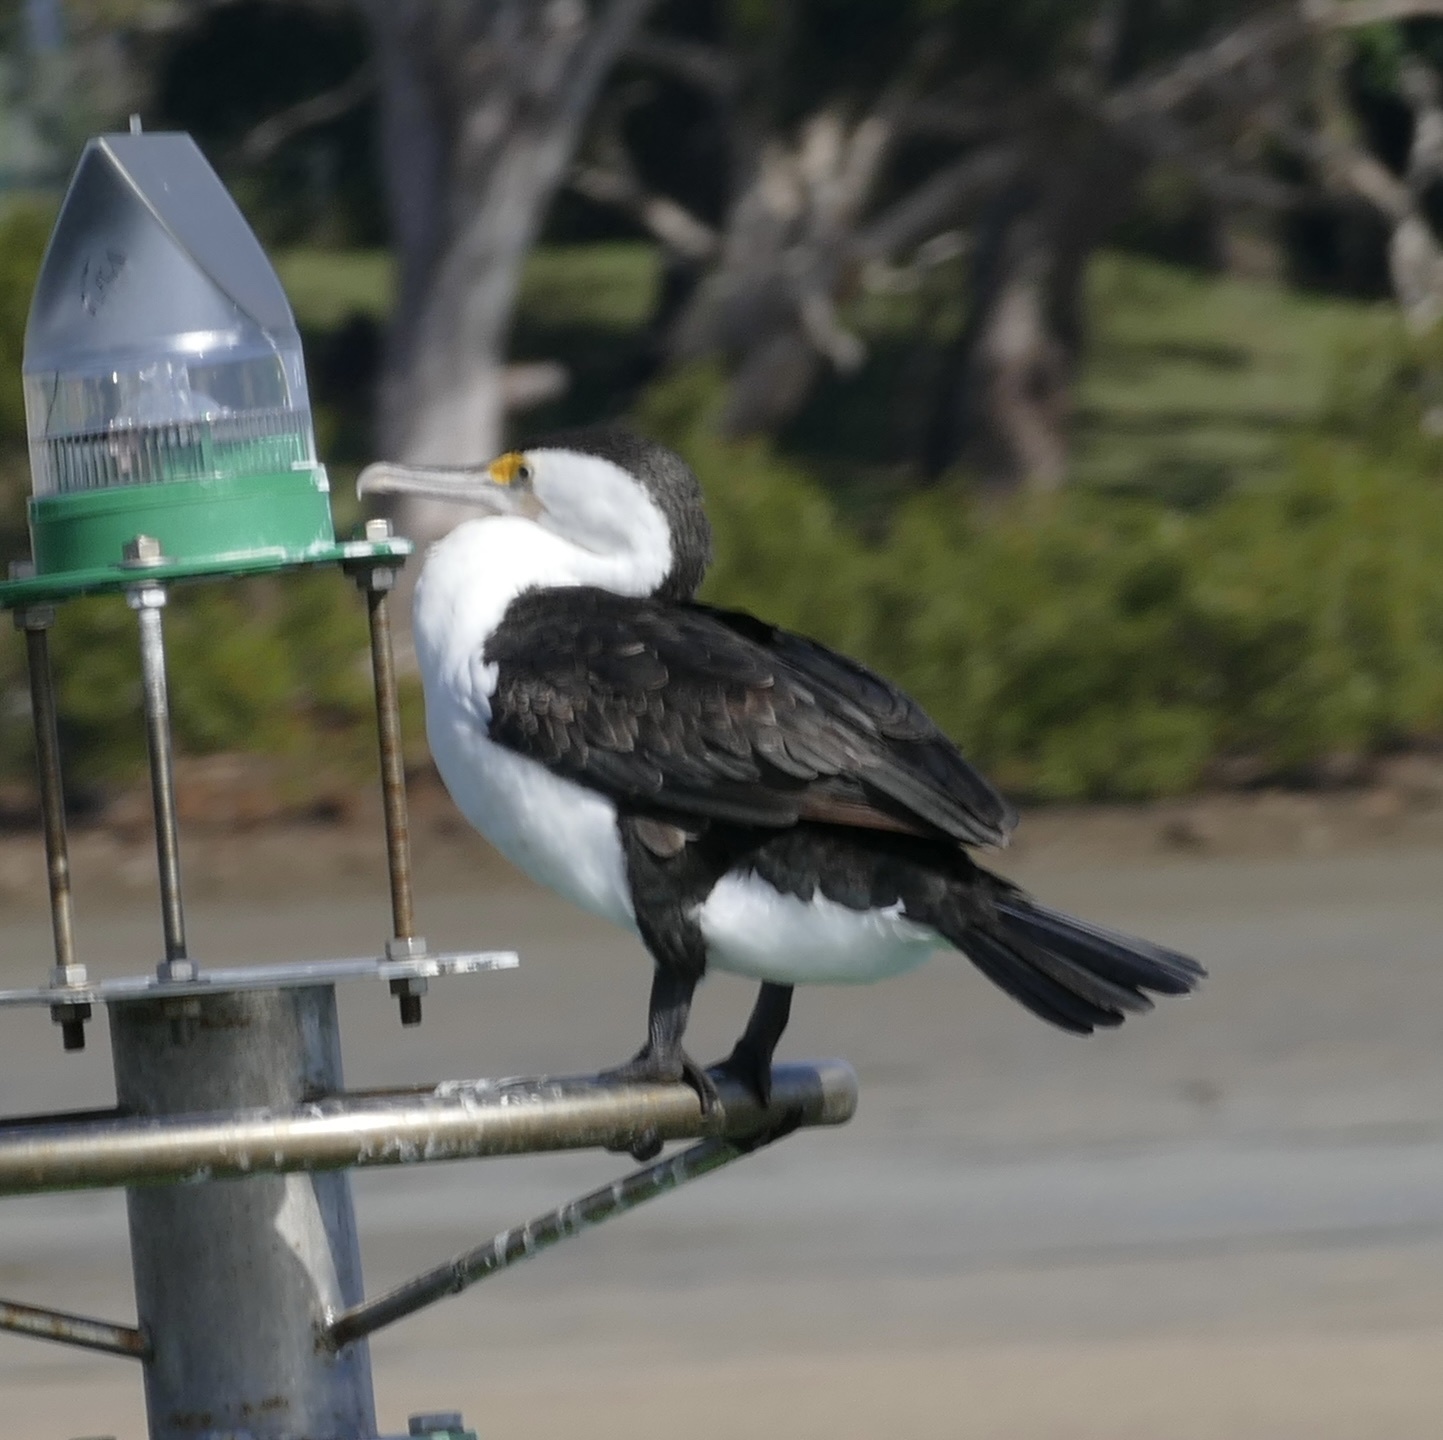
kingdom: Animalia
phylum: Chordata
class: Aves
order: Suliformes
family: Phalacrocoracidae
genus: Phalacrocorax
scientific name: Phalacrocorax varius
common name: Pied cormorant
